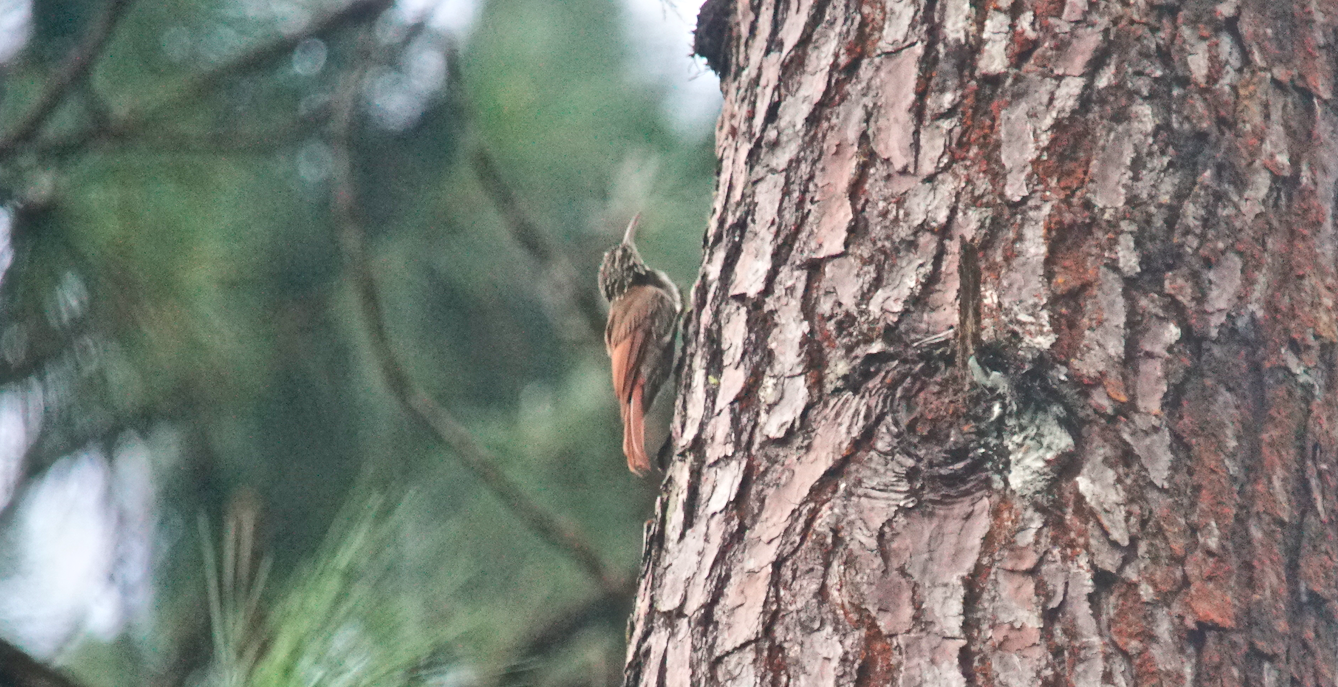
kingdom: Animalia
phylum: Chordata
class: Aves
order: Passeriformes
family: Furnariidae
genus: Lepidocolaptes
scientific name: Lepidocolaptes souleyetii
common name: Streak-headed woodcreeper
